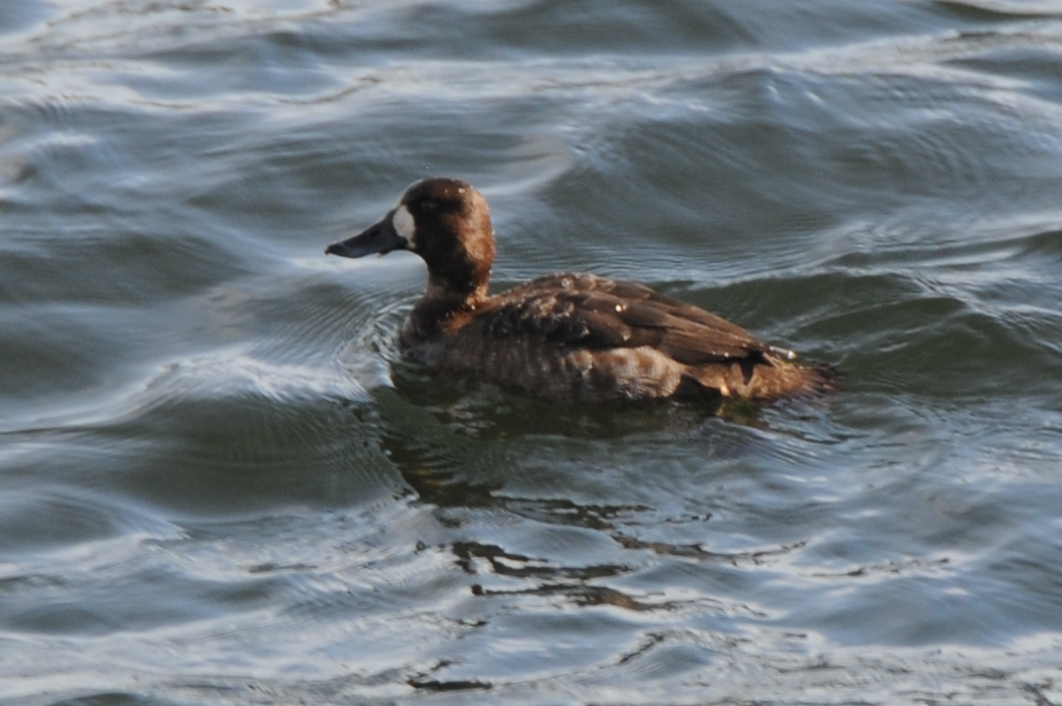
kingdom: Animalia
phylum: Chordata
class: Aves
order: Anseriformes
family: Anatidae
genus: Aythya
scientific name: Aythya marila
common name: Greater scaup
